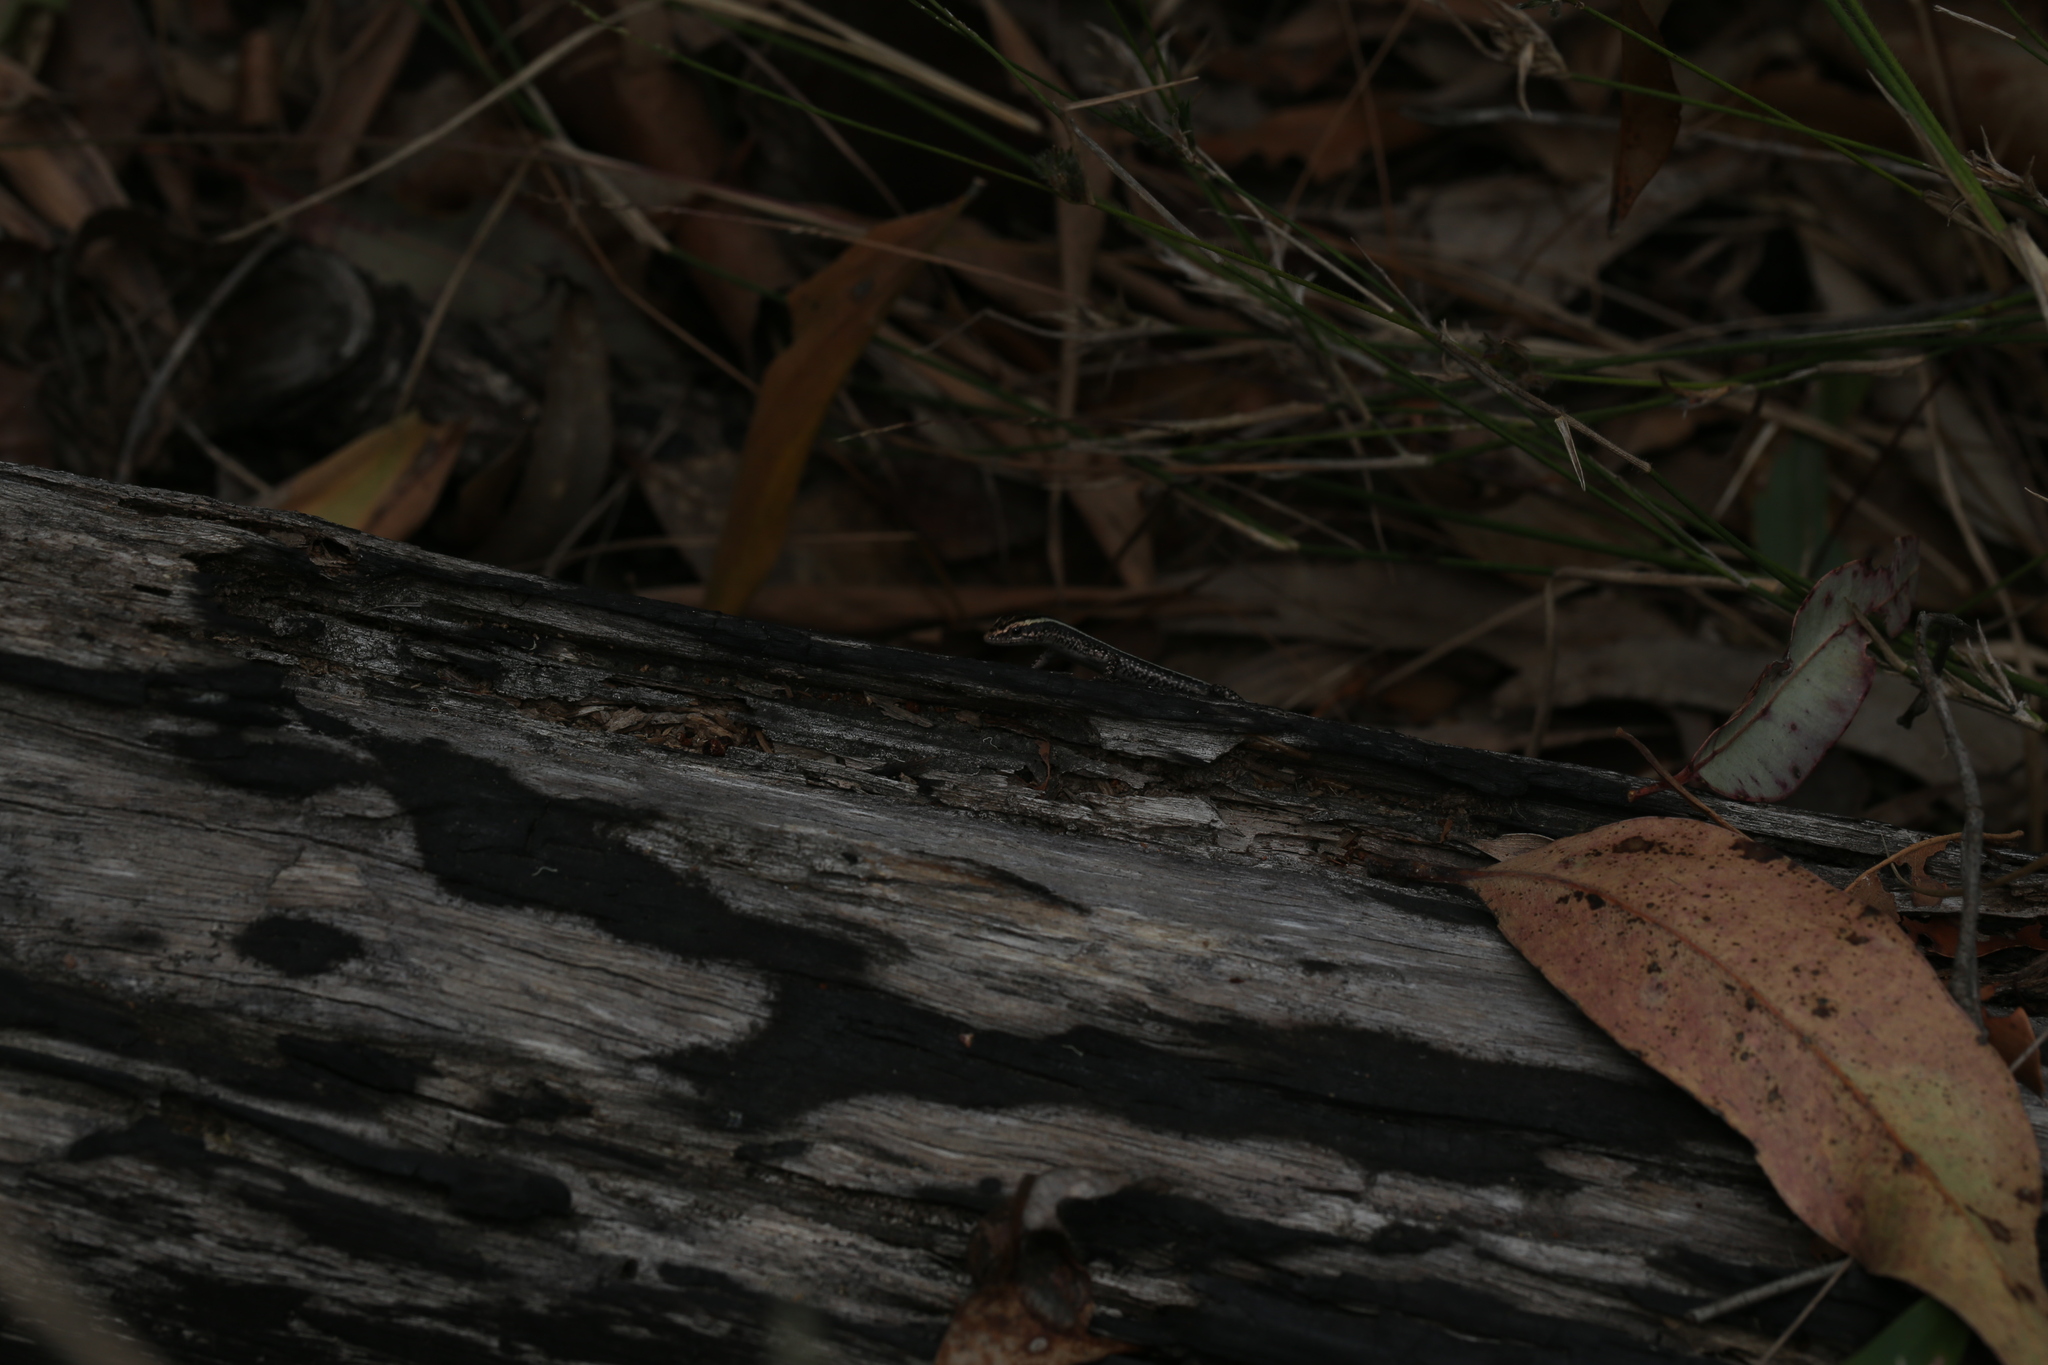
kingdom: Animalia
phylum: Chordata
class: Squamata
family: Scincidae
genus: Cryptoblepharus
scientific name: Cryptoblepharus pulcher
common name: Elegant snake-eyed skink
